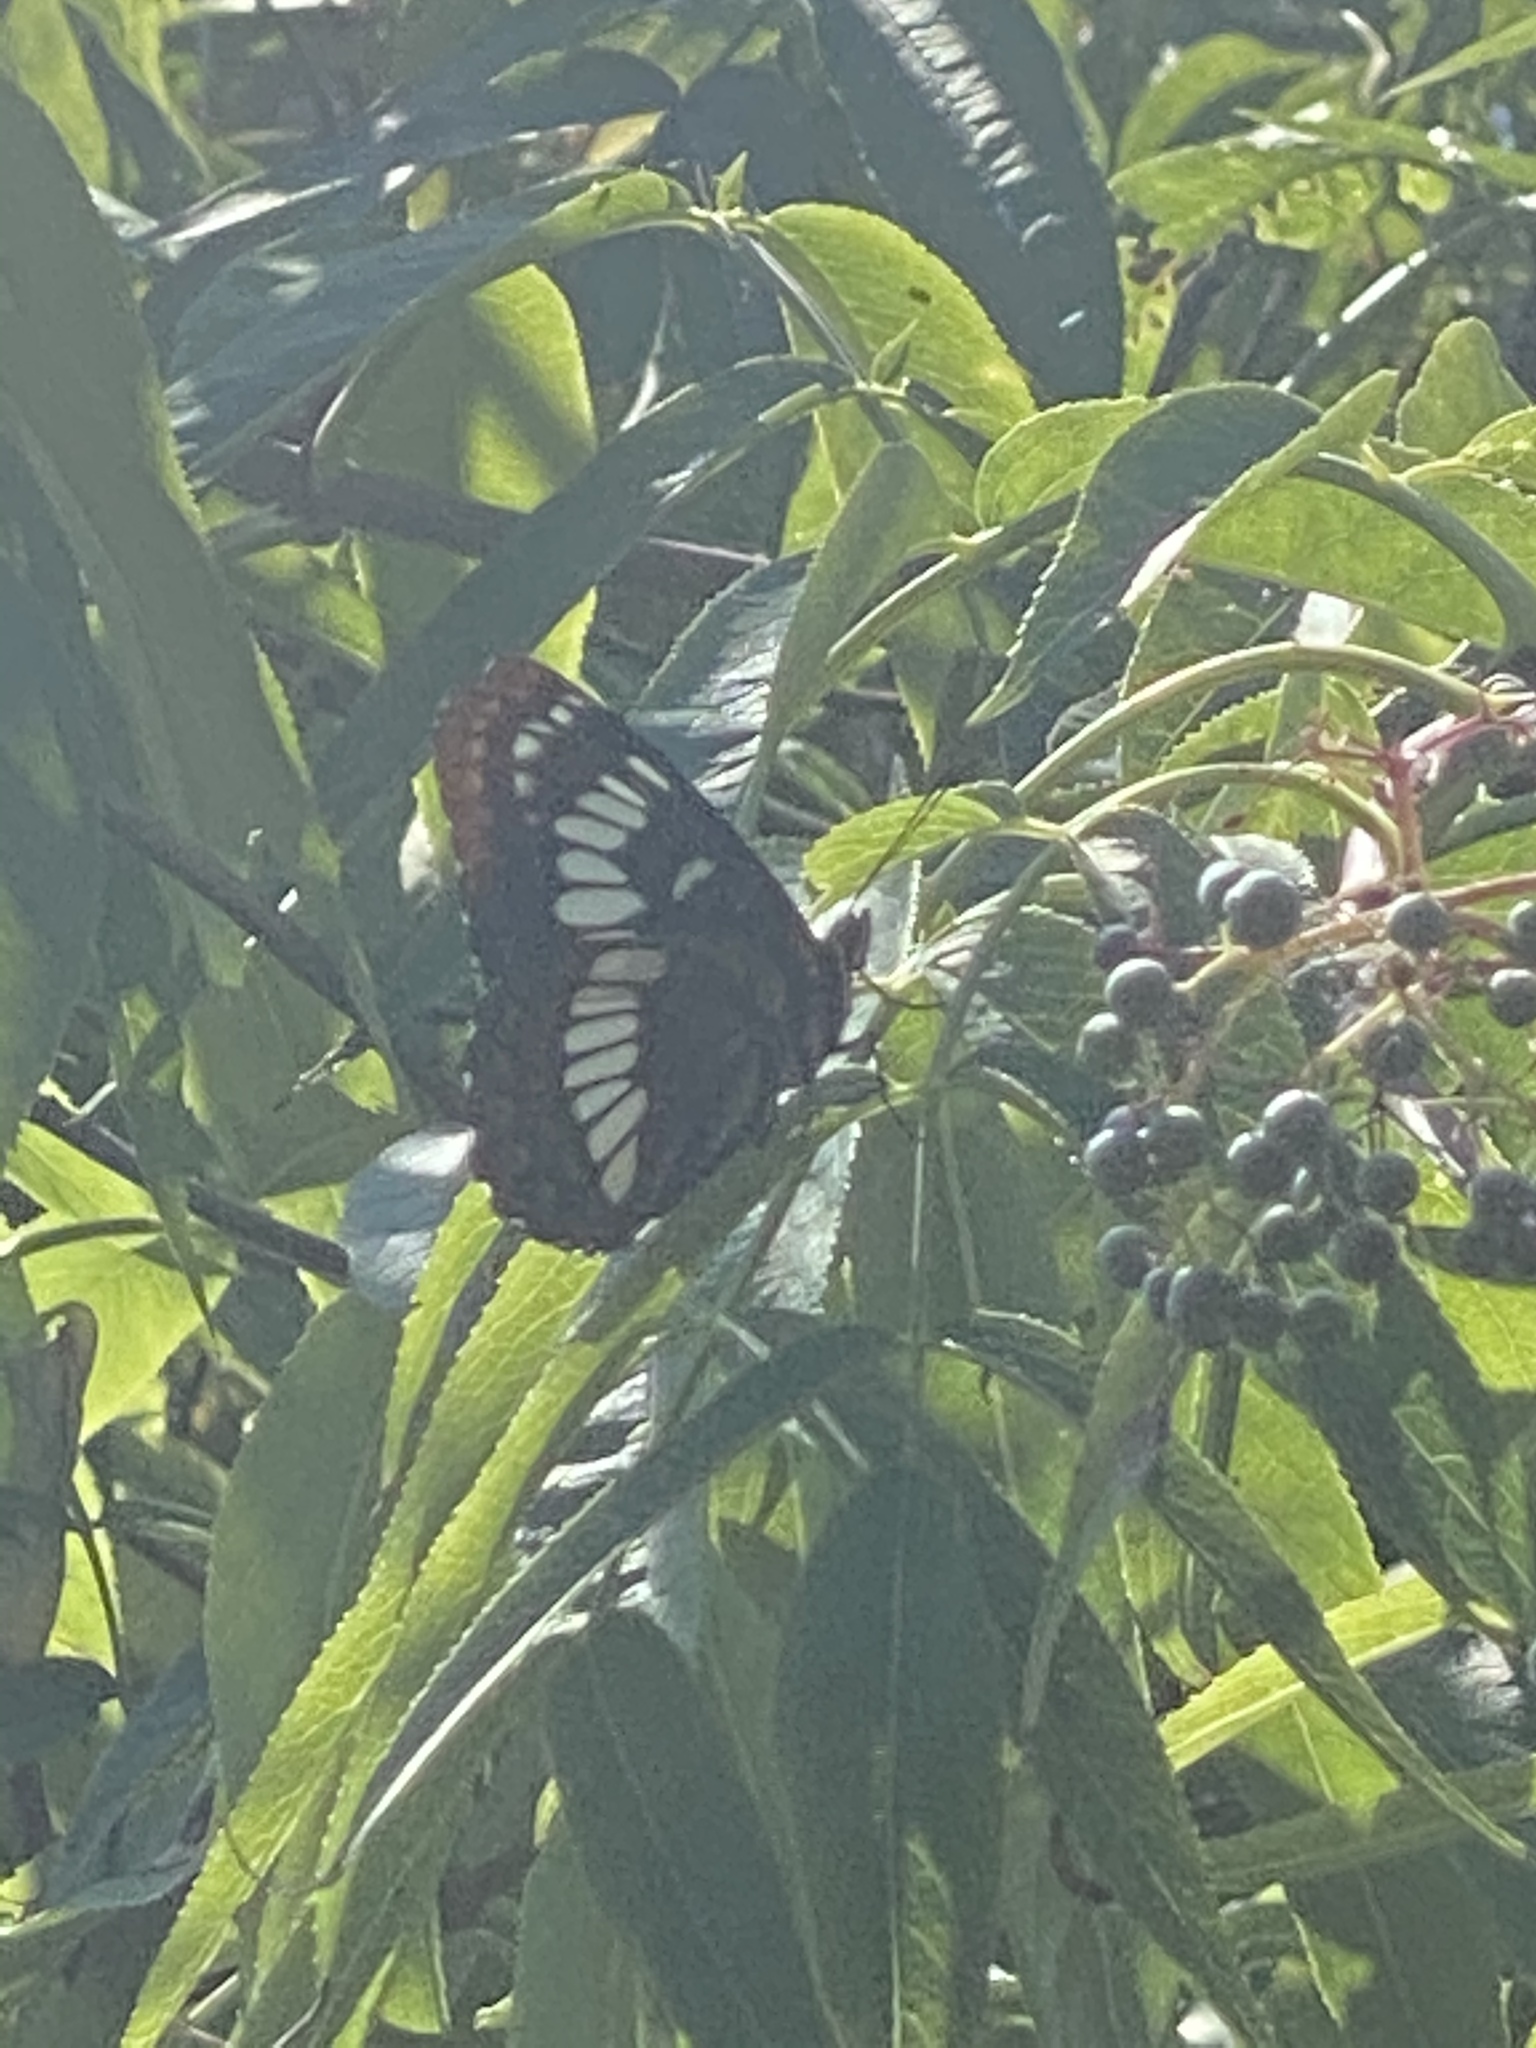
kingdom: Animalia
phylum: Arthropoda
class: Insecta
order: Lepidoptera
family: Nymphalidae
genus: Limenitis
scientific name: Limenitis lorquini
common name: Lorquin's admiral
